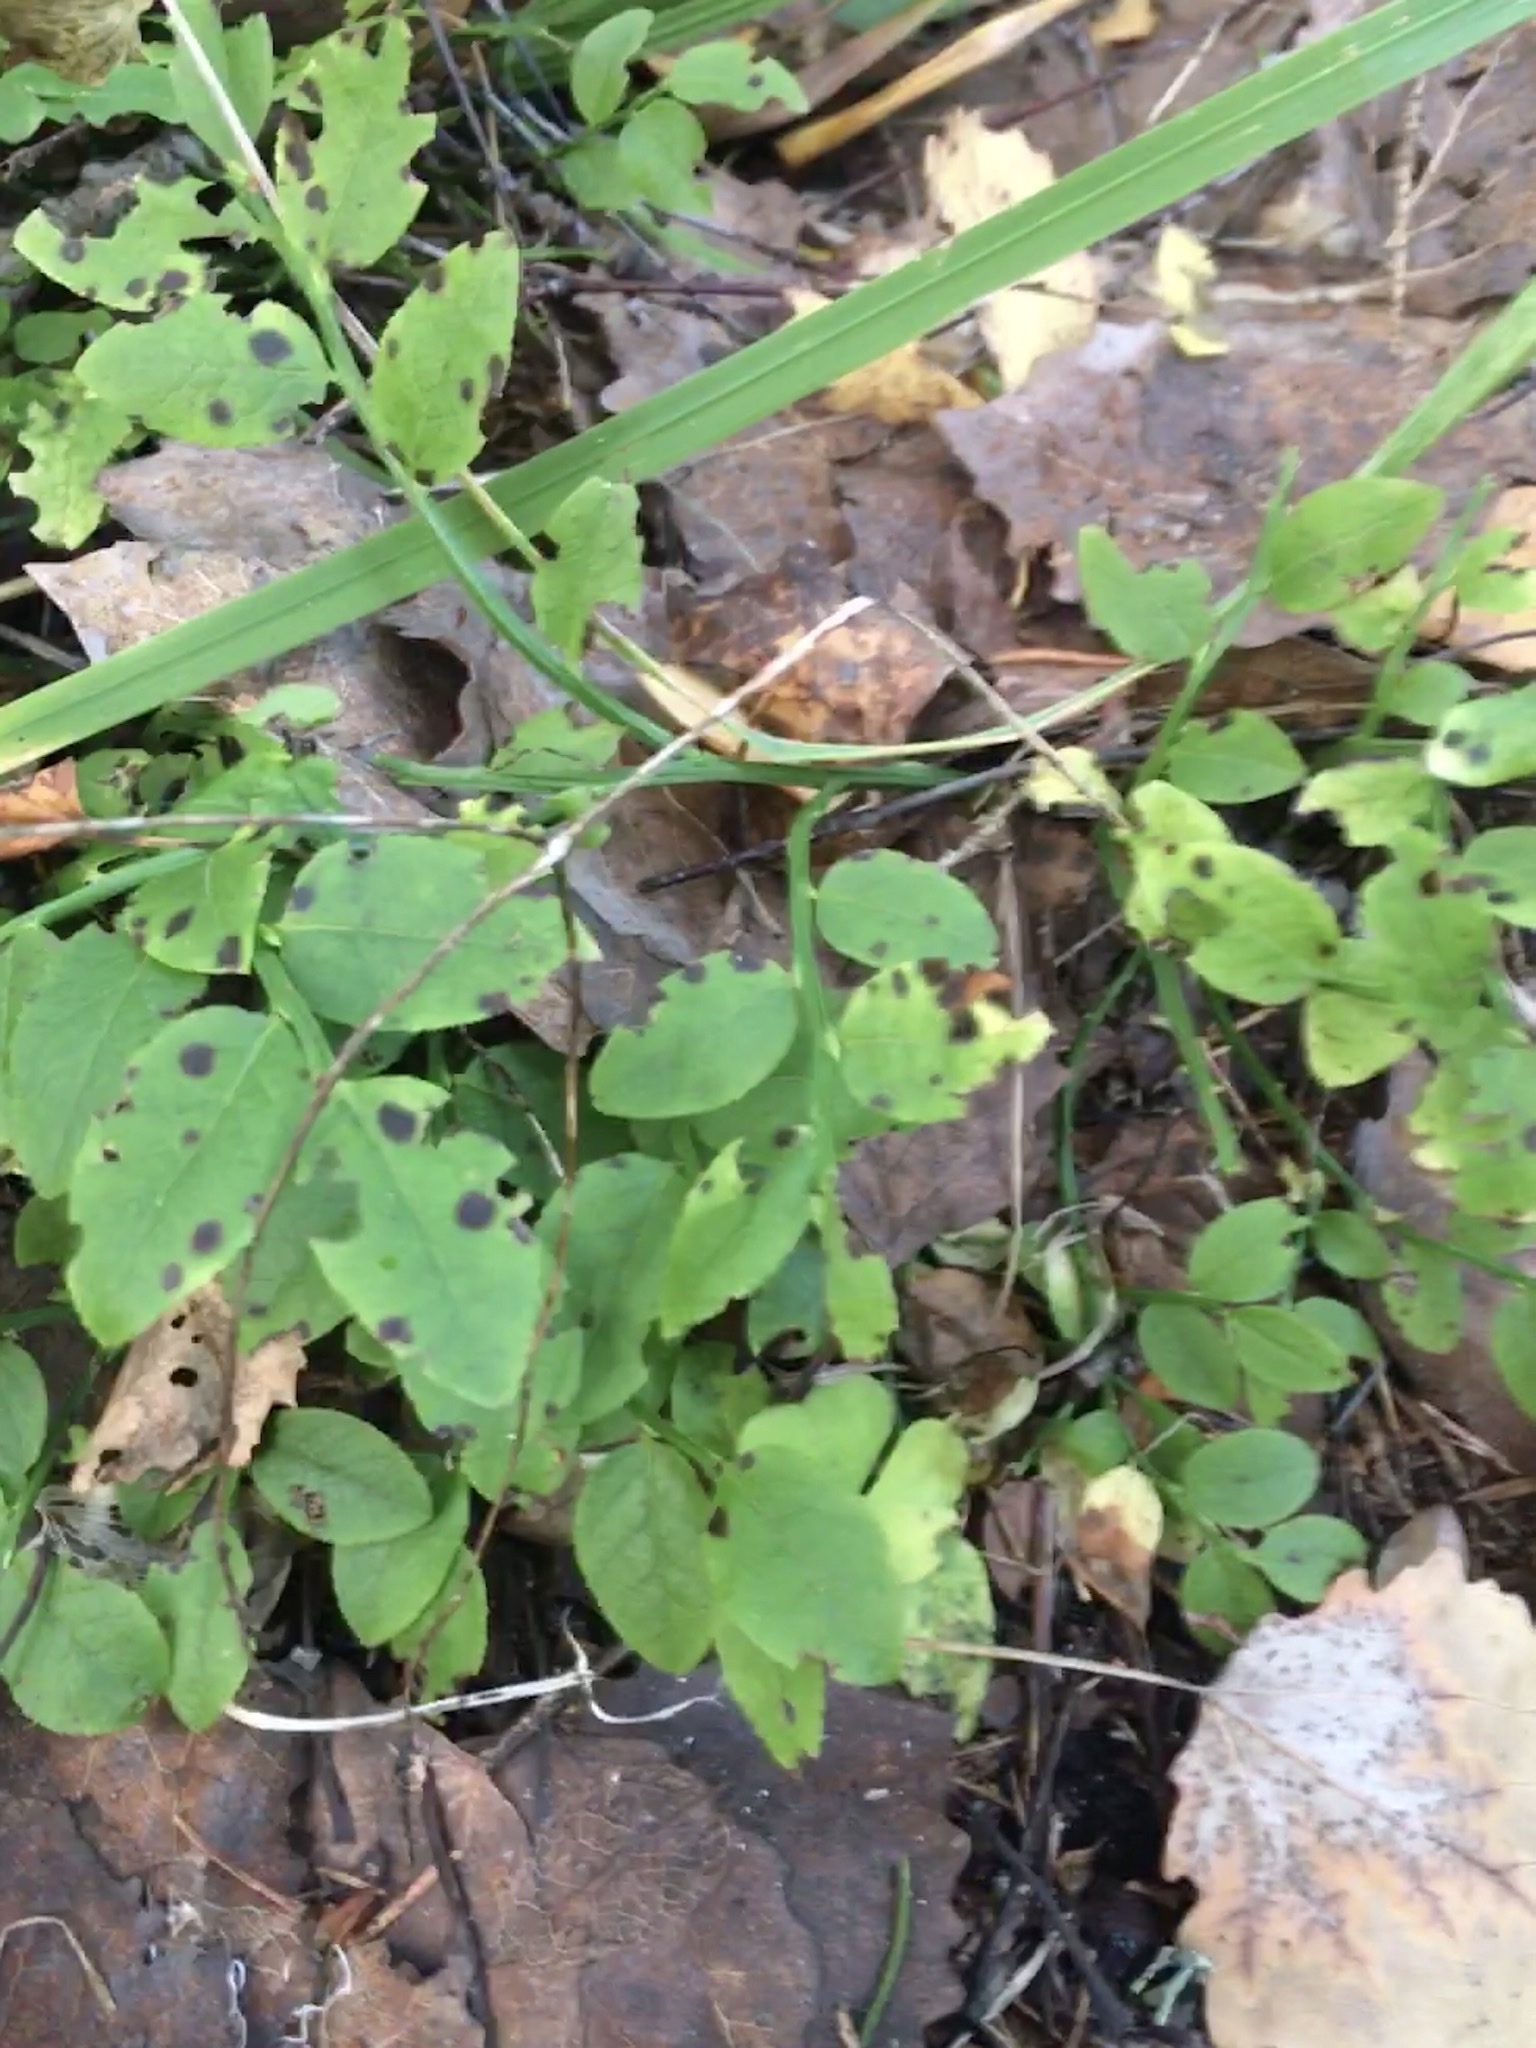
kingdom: Plantae
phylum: Tracheophyta
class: Magnoliopsida
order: Ericales
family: Ericaceae
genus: Vaccinium
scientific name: Vaccinium myrtillus
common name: Bilberry
